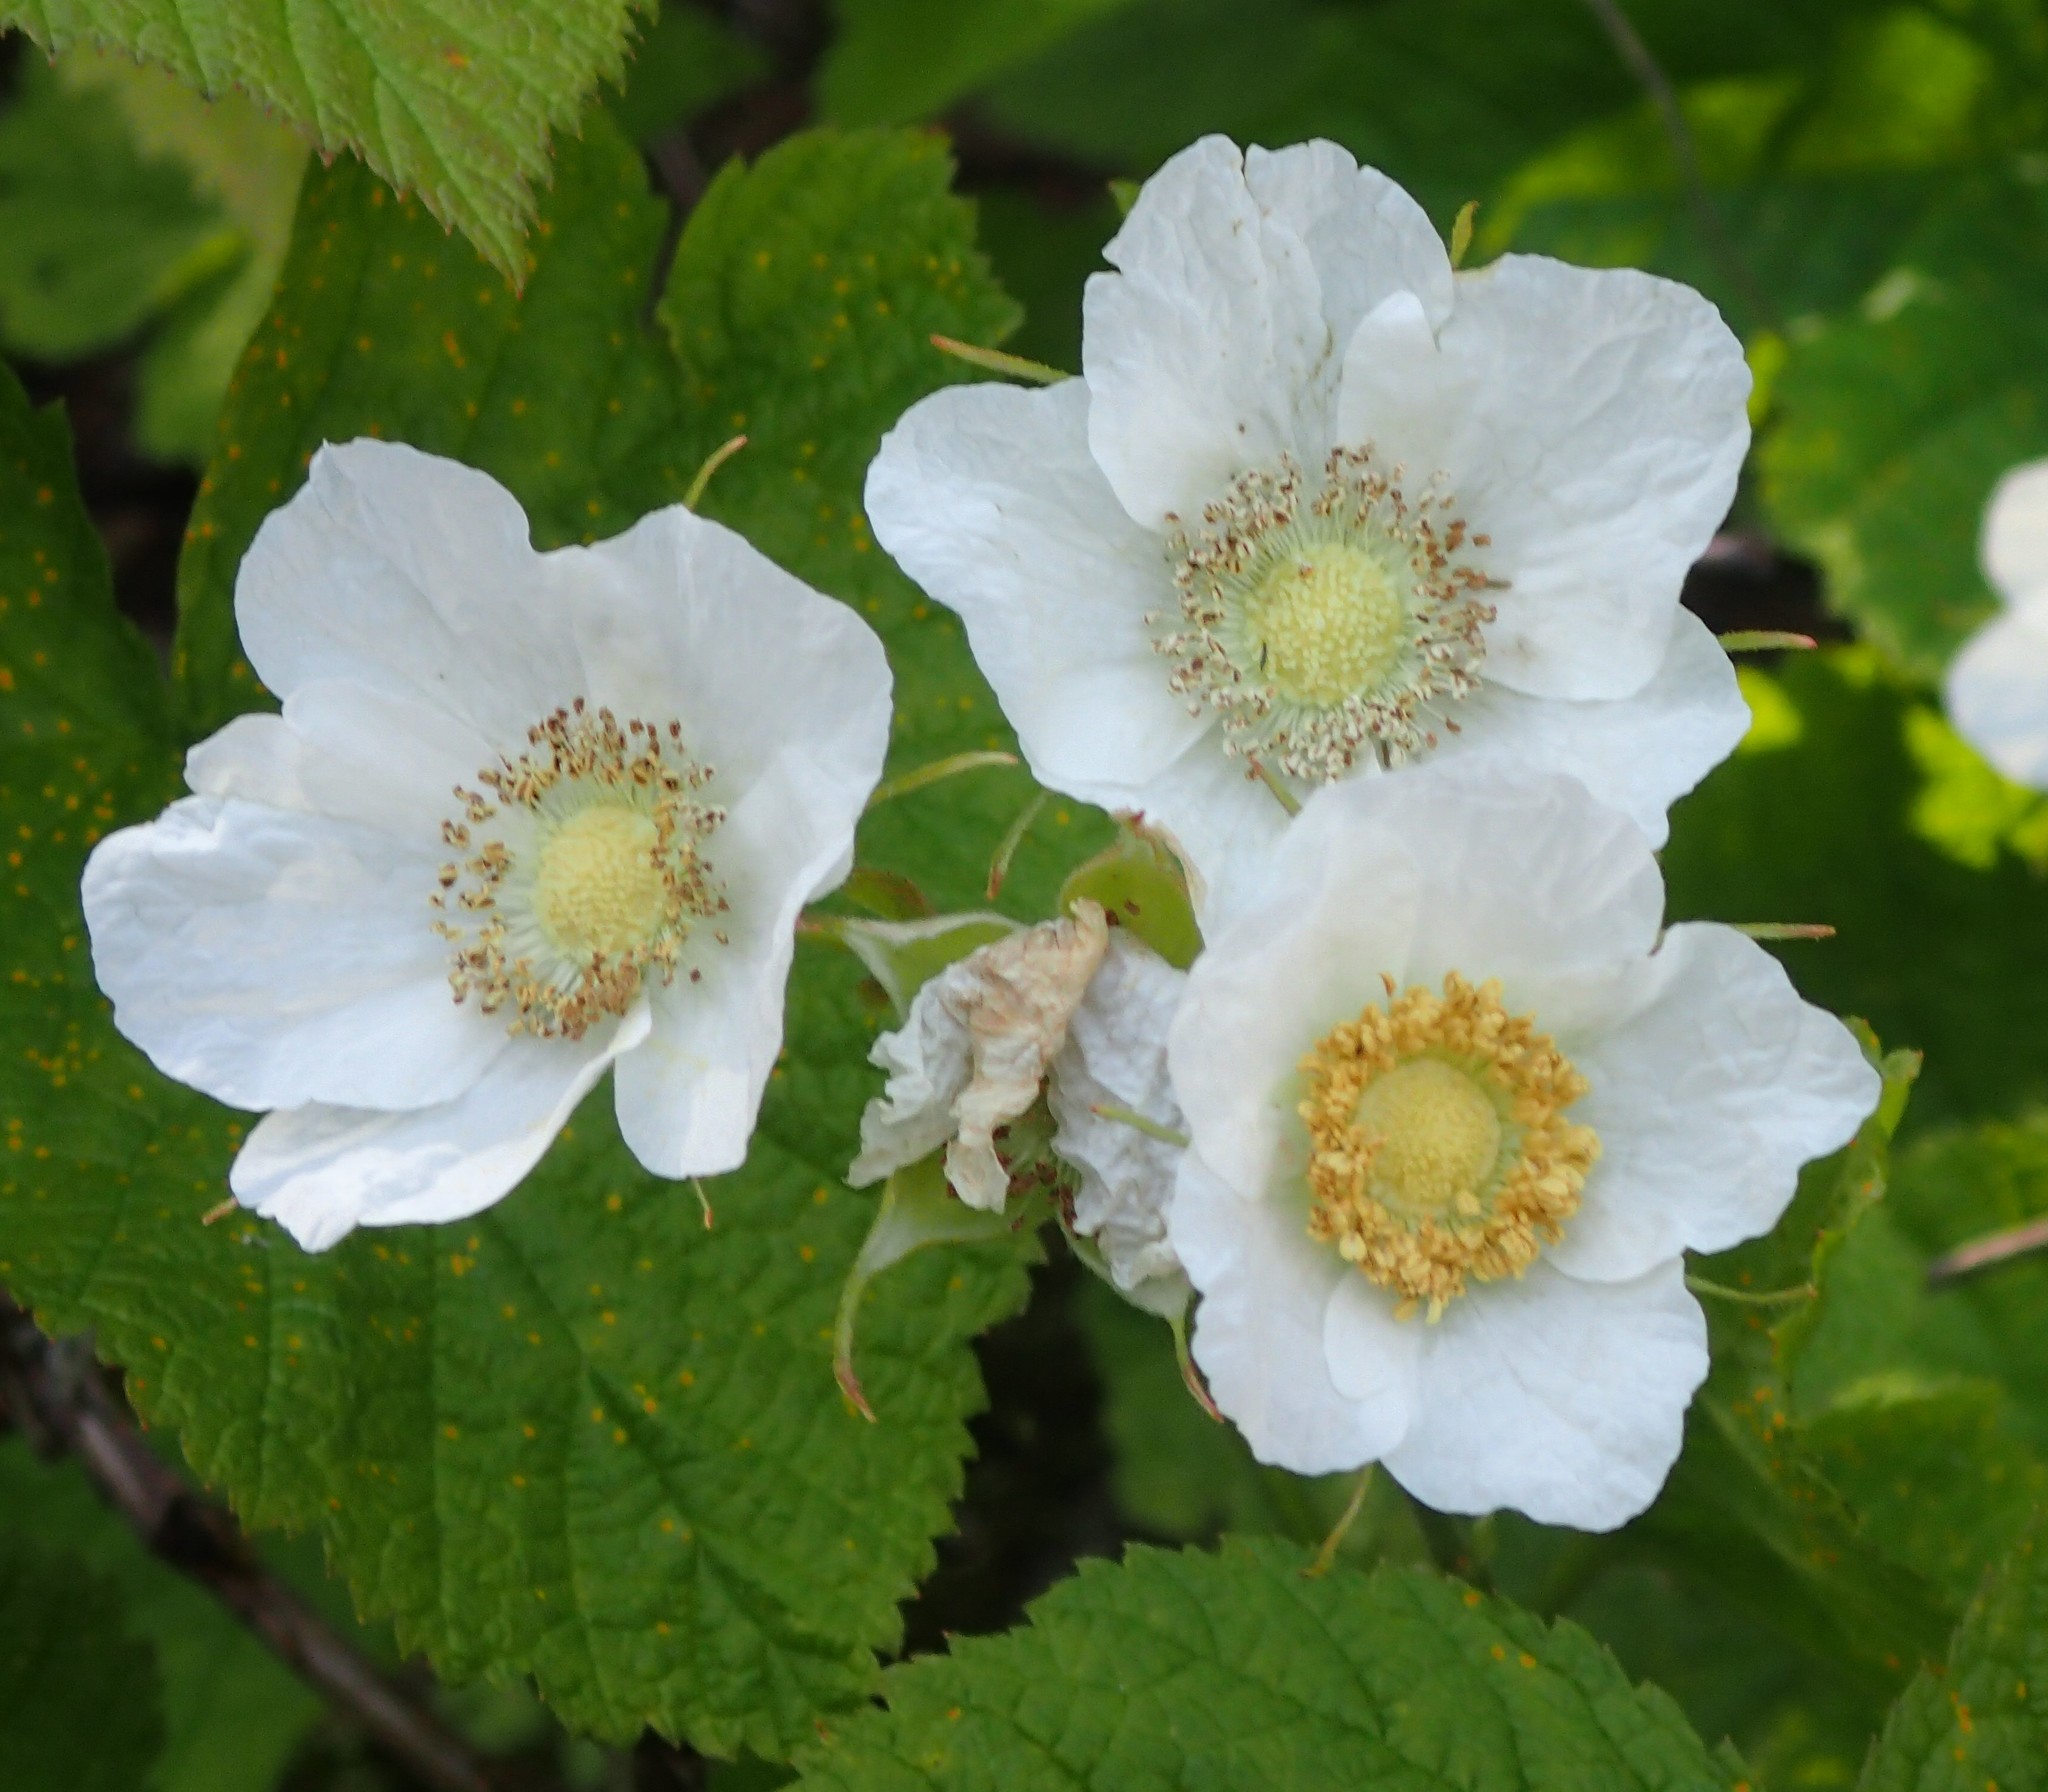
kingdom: Plantae
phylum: Tracheophyta
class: Magnoliopsida
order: Rosales
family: Rosaceae
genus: Rubus
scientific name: Rubus parviflorus
